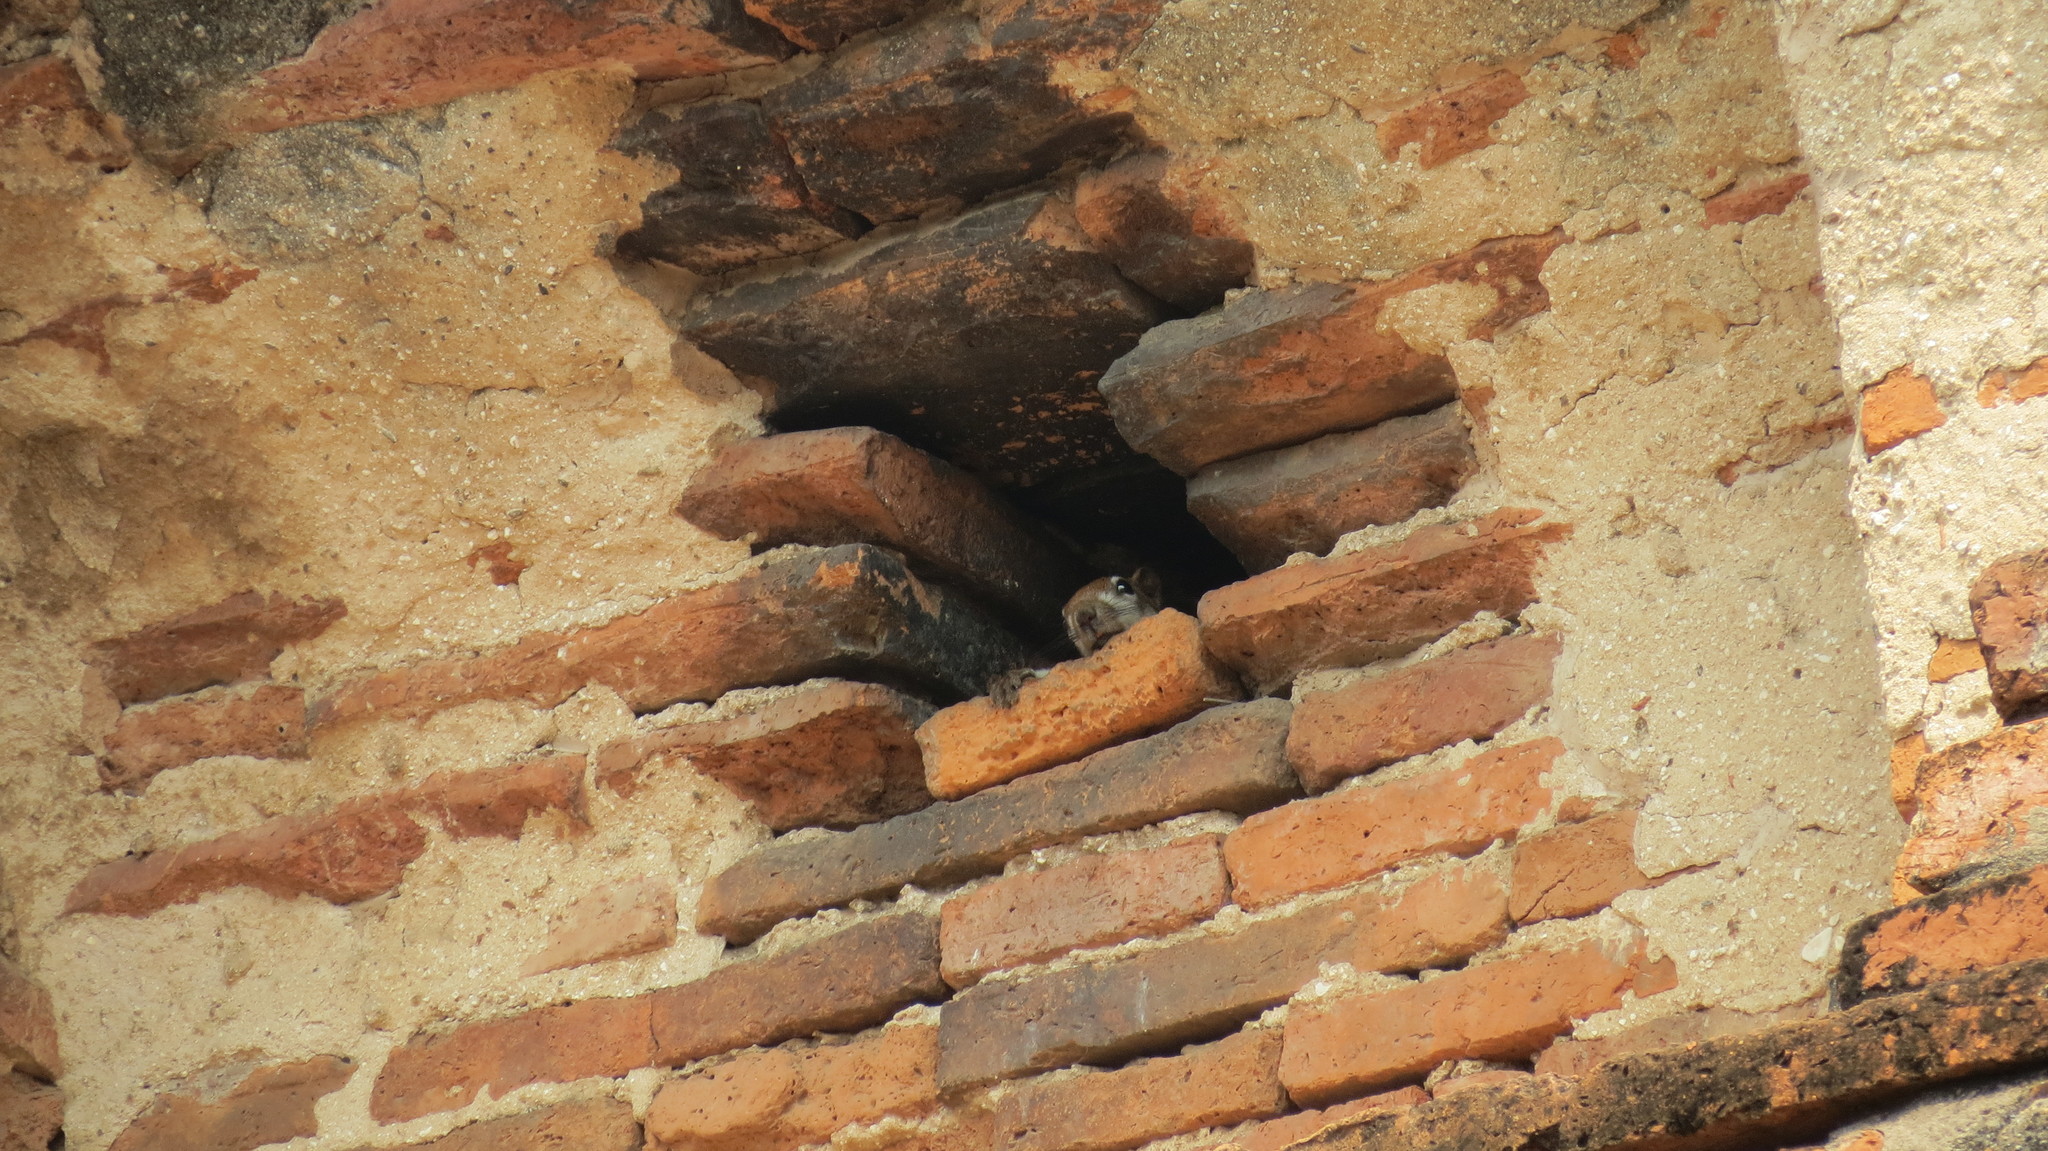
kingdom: Animalia
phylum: Chordata
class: Mammalia
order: Rodentia
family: Sciuridae
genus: Callosciurus
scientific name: Callosciurus finlaysonii
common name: Finlayson's squirrel
